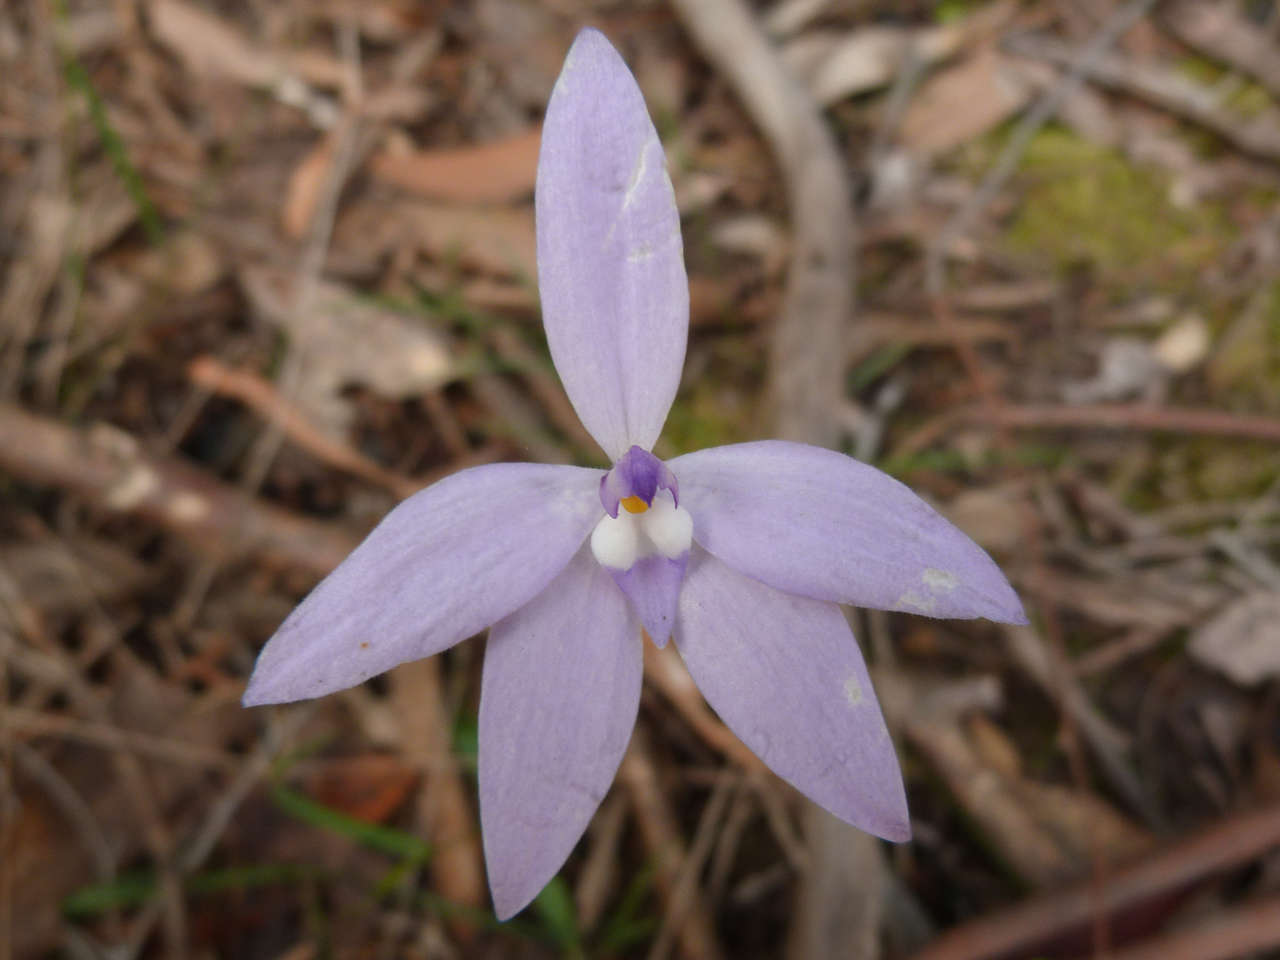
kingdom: Plantae
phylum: Tracheophyta
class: Liliopsida
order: Asparagales
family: Orchidaceae
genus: Caladenia
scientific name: Caladenia major
